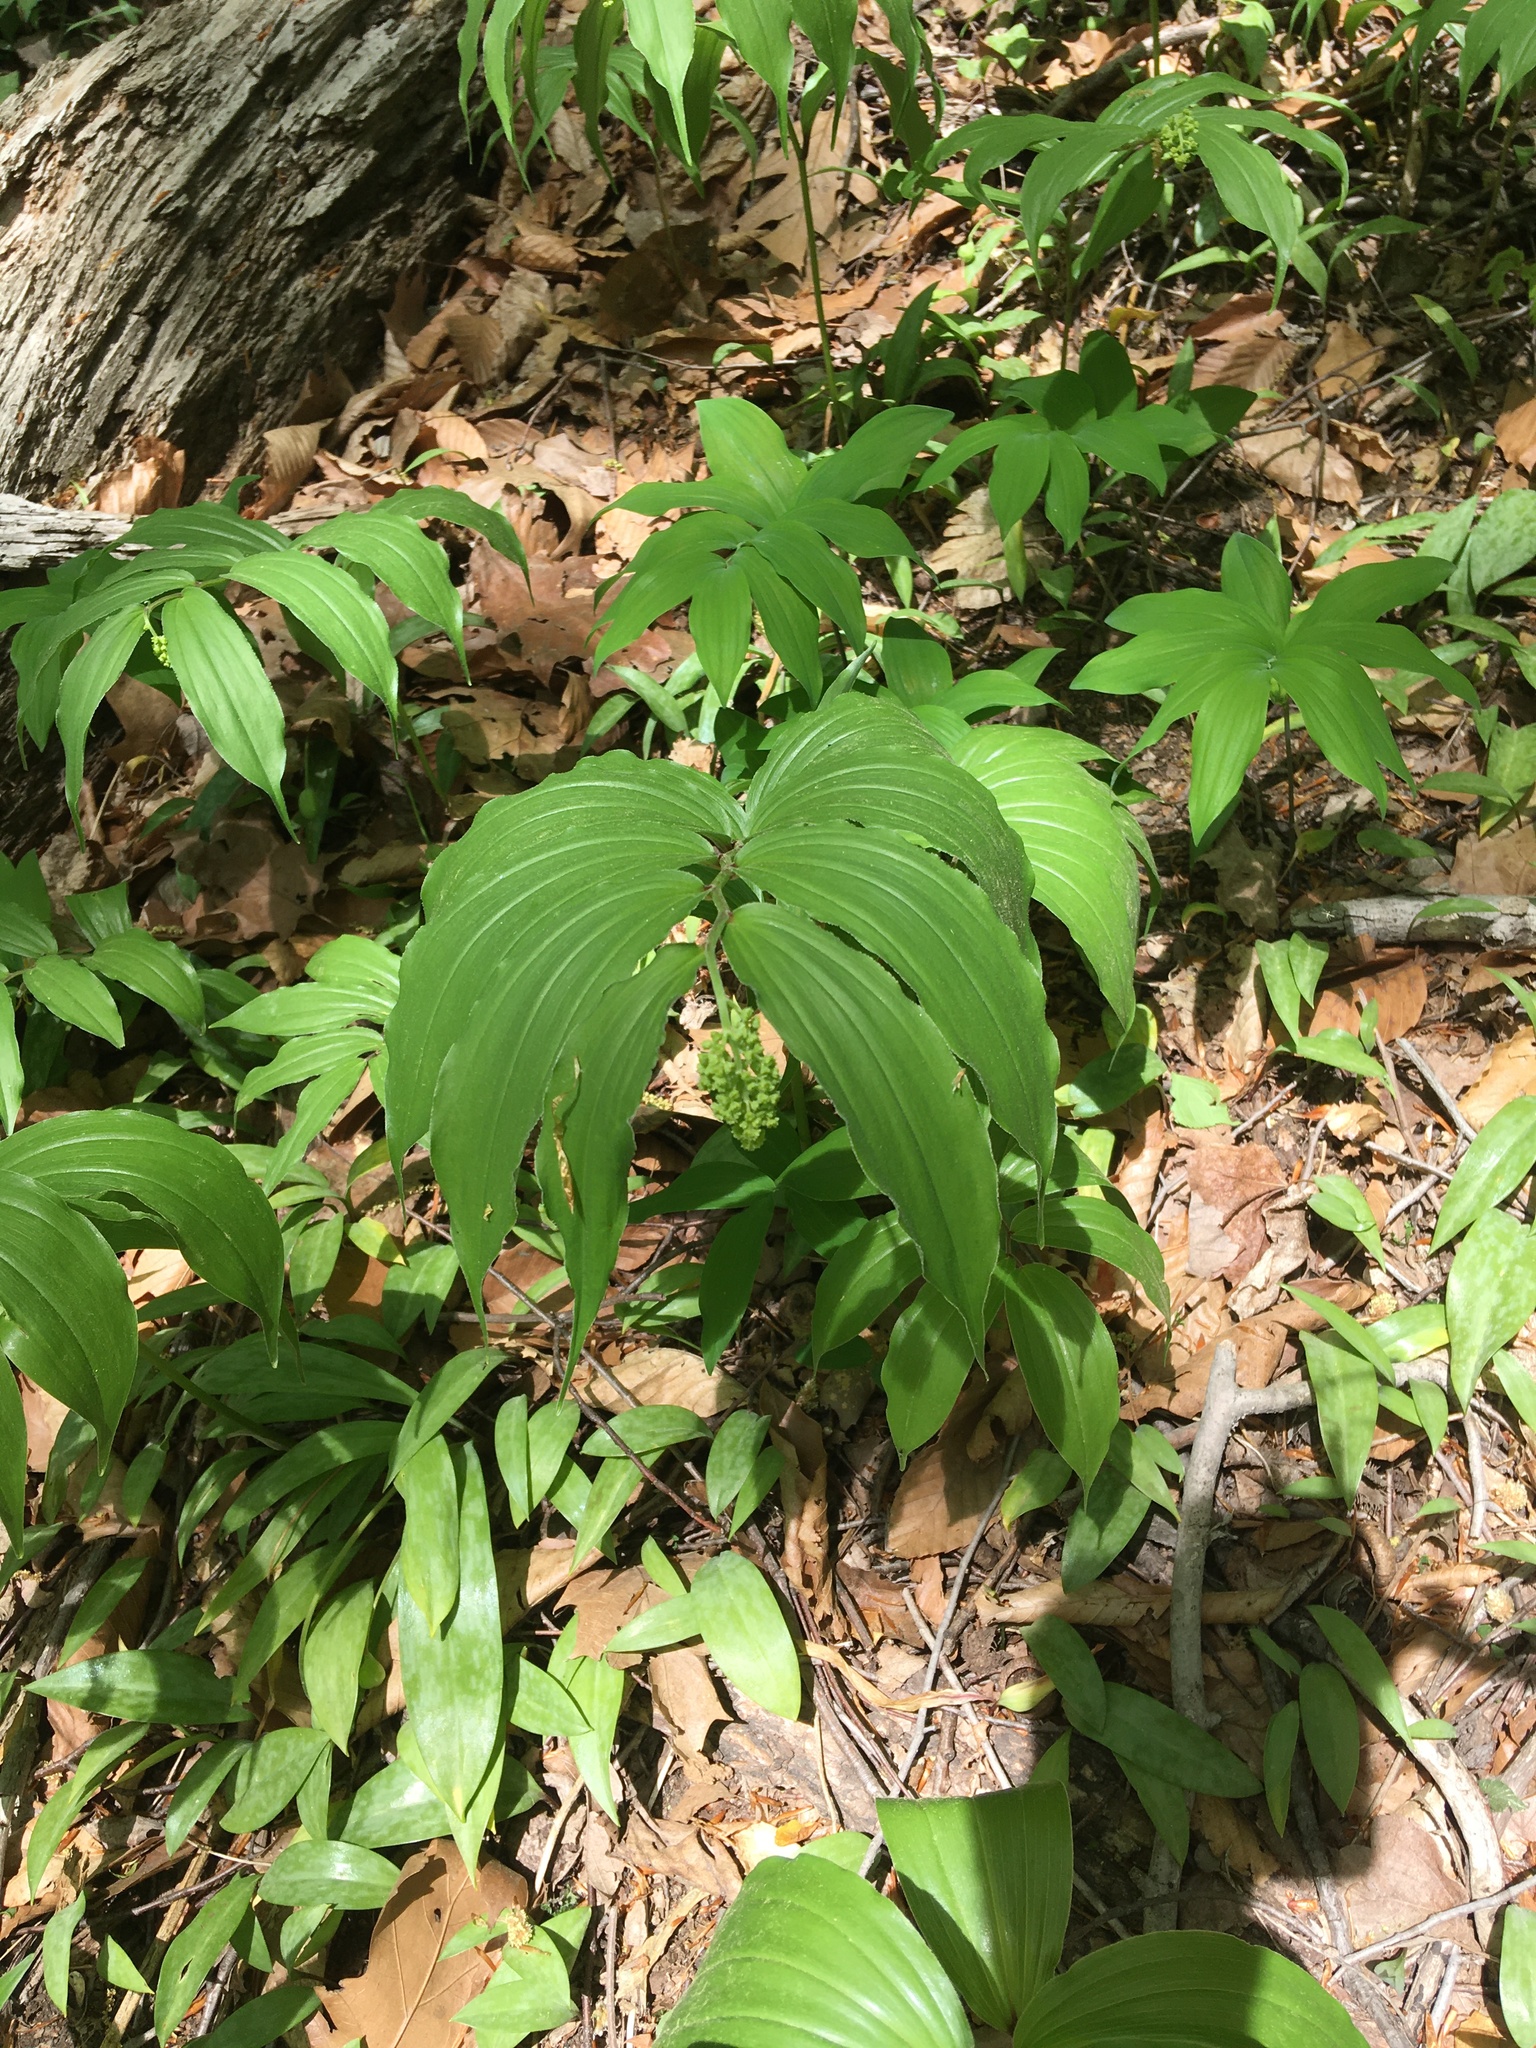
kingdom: Plantae
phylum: Tracheophyta
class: Liliopsida
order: Asparagales
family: Asparagaceae
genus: Maianthemum
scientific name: Maianthemum racemosum
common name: False spikenard
